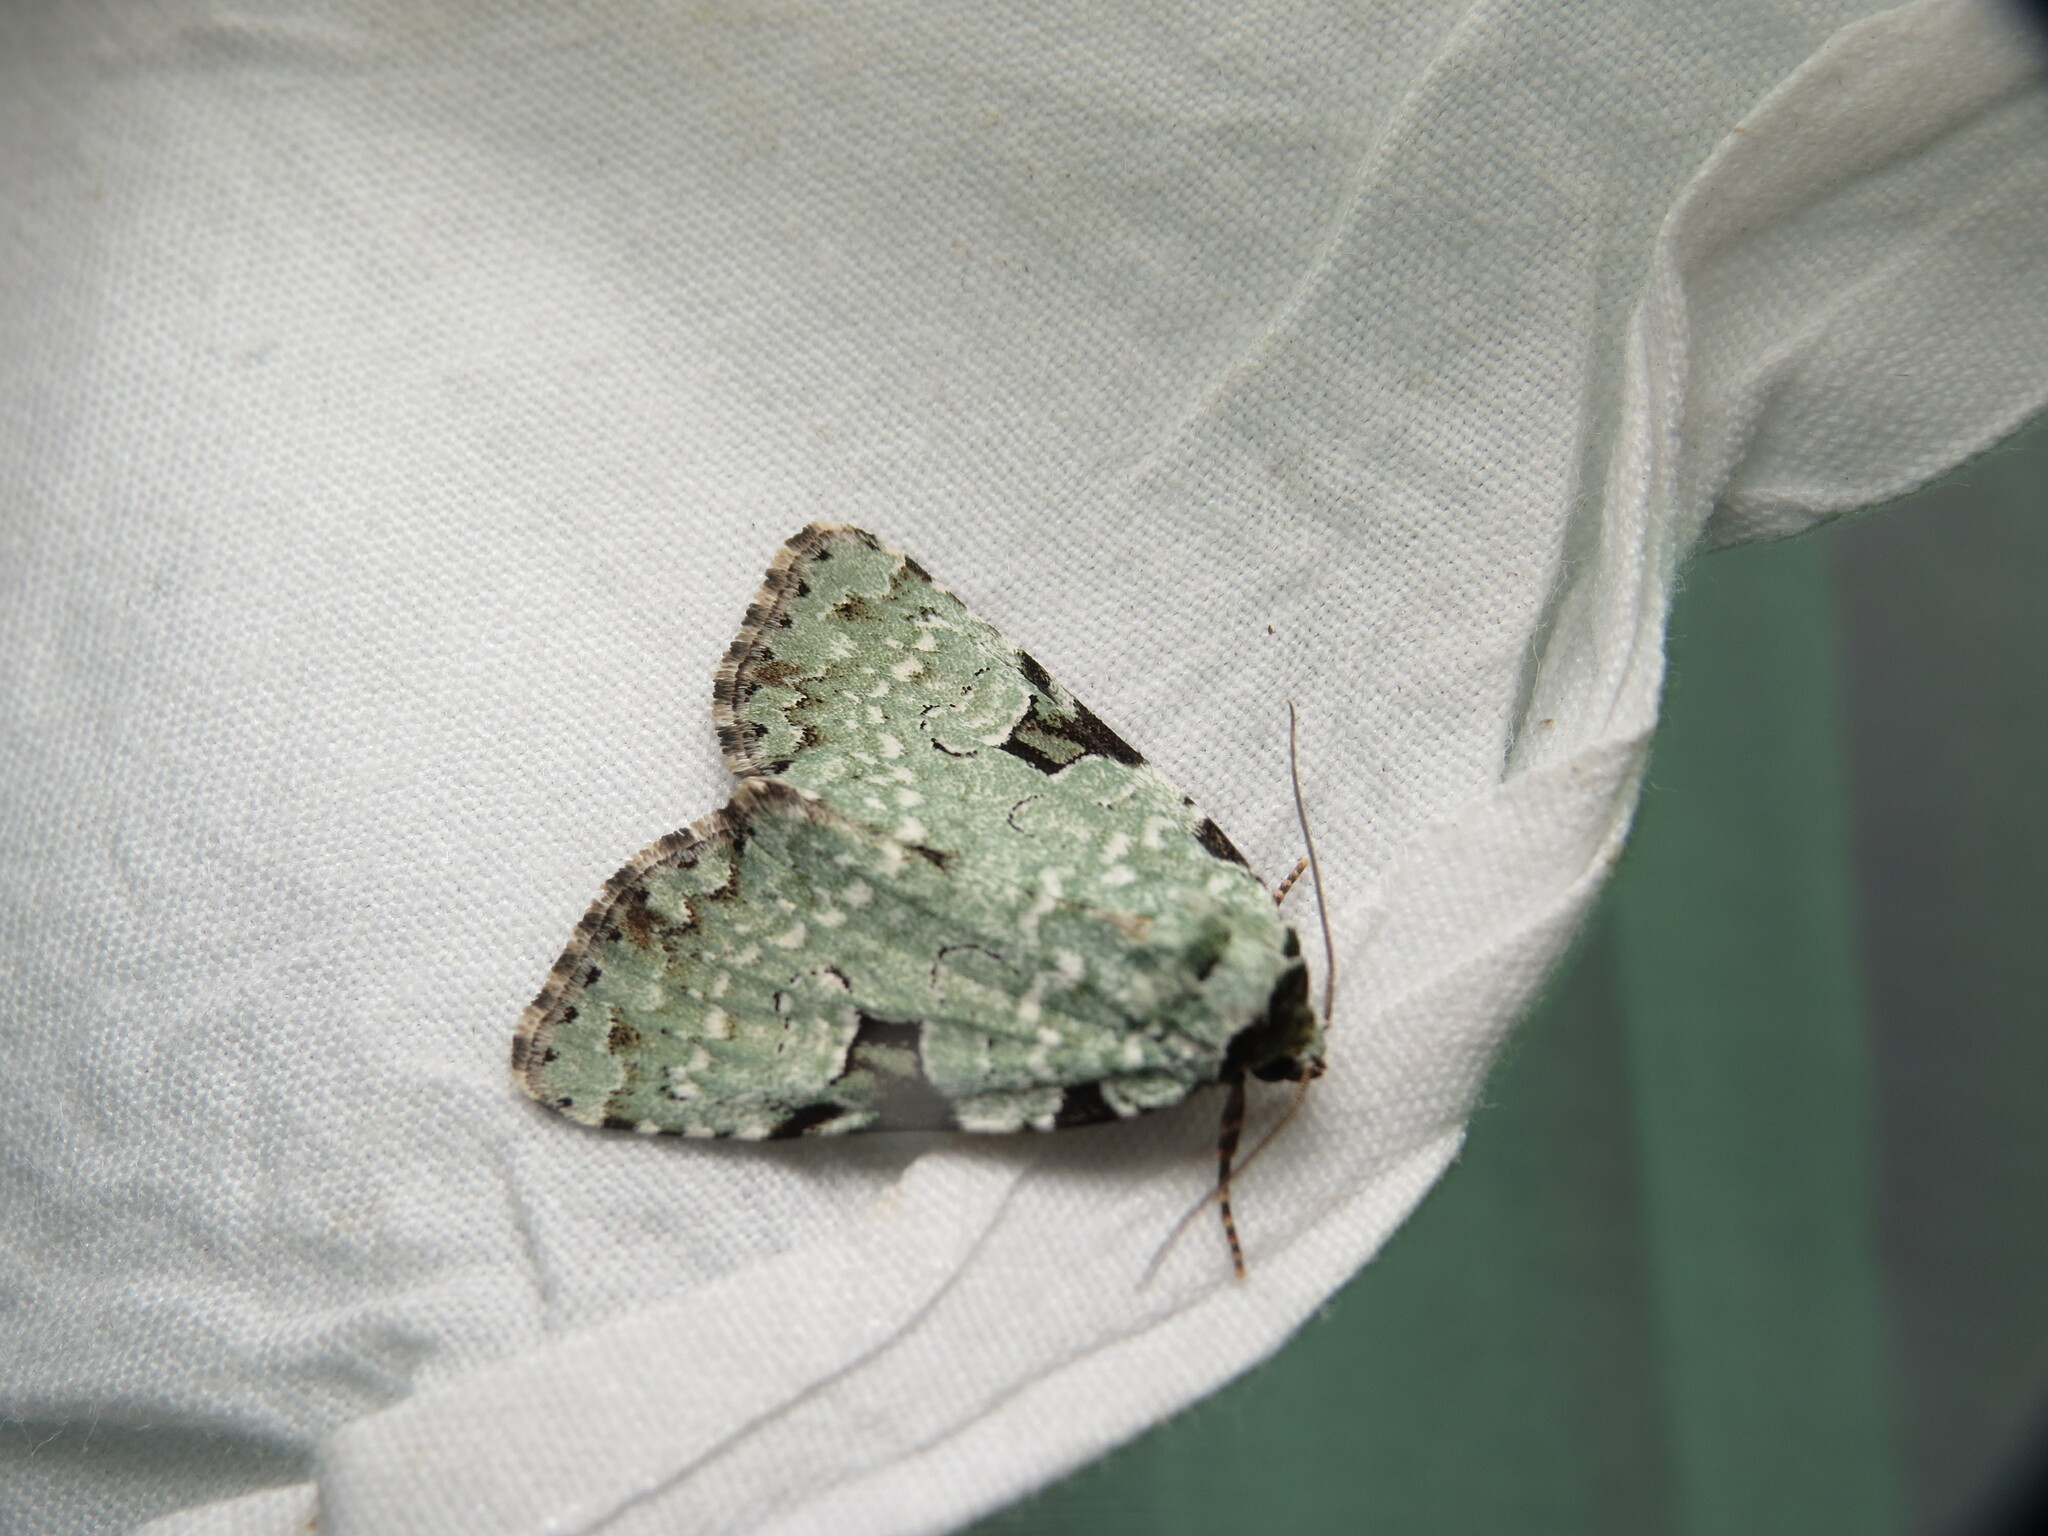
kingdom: Animalia
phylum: Arthropoda
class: Insecta
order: Lepidoptera
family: Noctuidae
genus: Leuconycta
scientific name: Leuconycta diphteroides
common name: Green leuconycta moth
